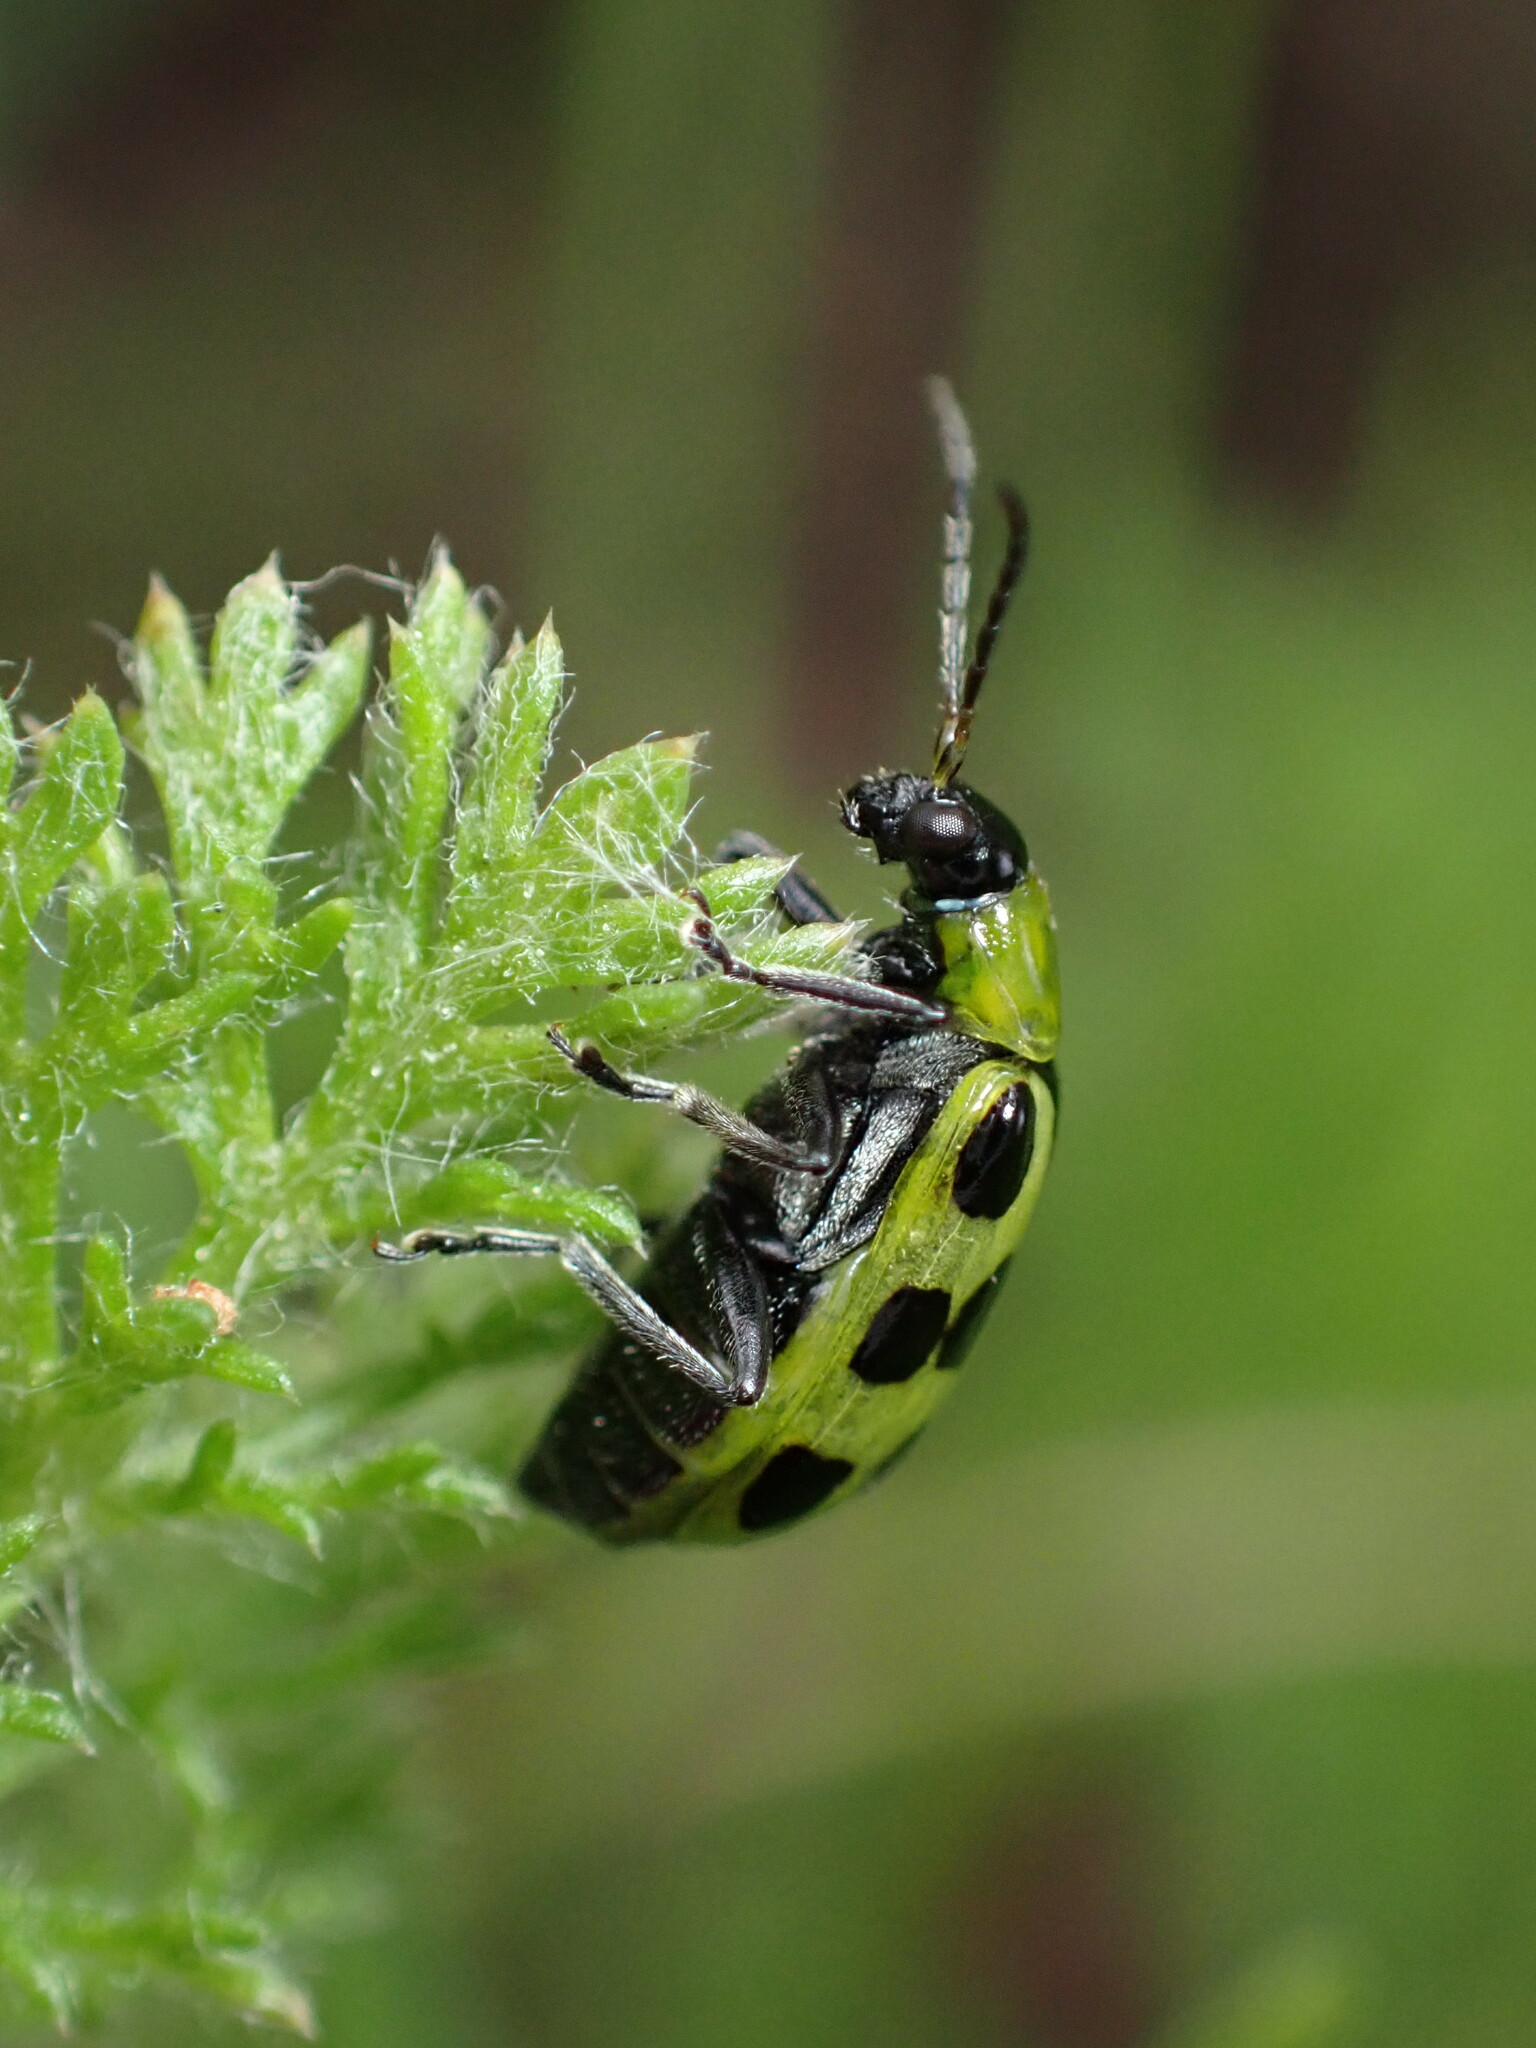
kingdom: Animalia
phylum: Arthropoda
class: Insecta
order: Coleoptera
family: Chrysomelidae
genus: Diabrotica
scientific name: Diabrotica undecimpunctata
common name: Spotted cucumber beetle
